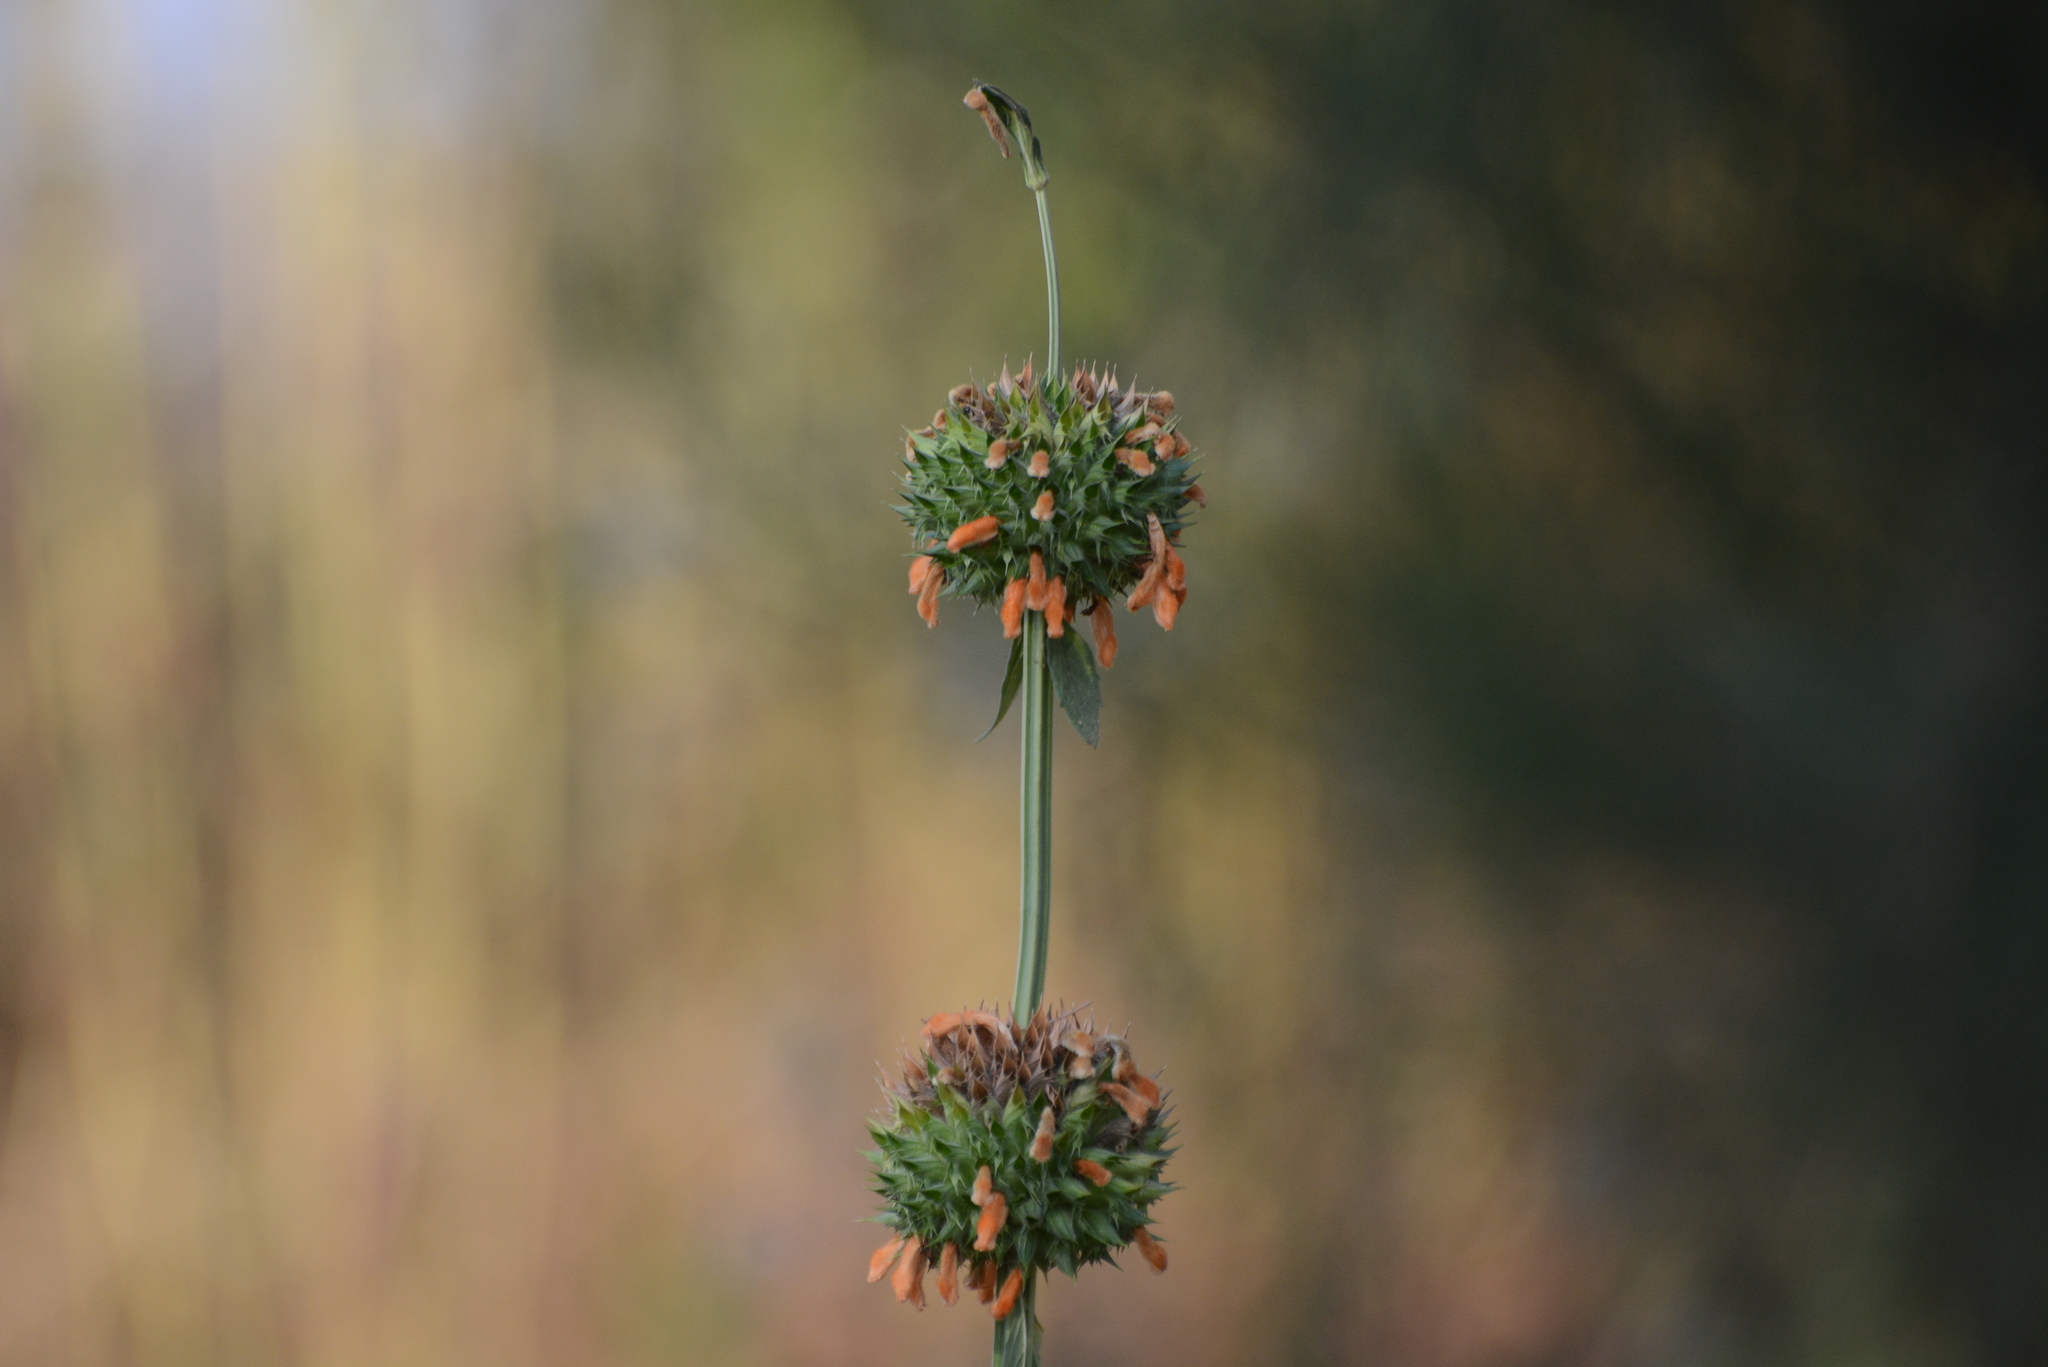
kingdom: Plantae
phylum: Tracheophyta
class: Magnoliopsida
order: Lamiales
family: Lamiaceae
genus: Leonotis
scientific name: Leonotis nepetifolia
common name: Christmas candlestick
